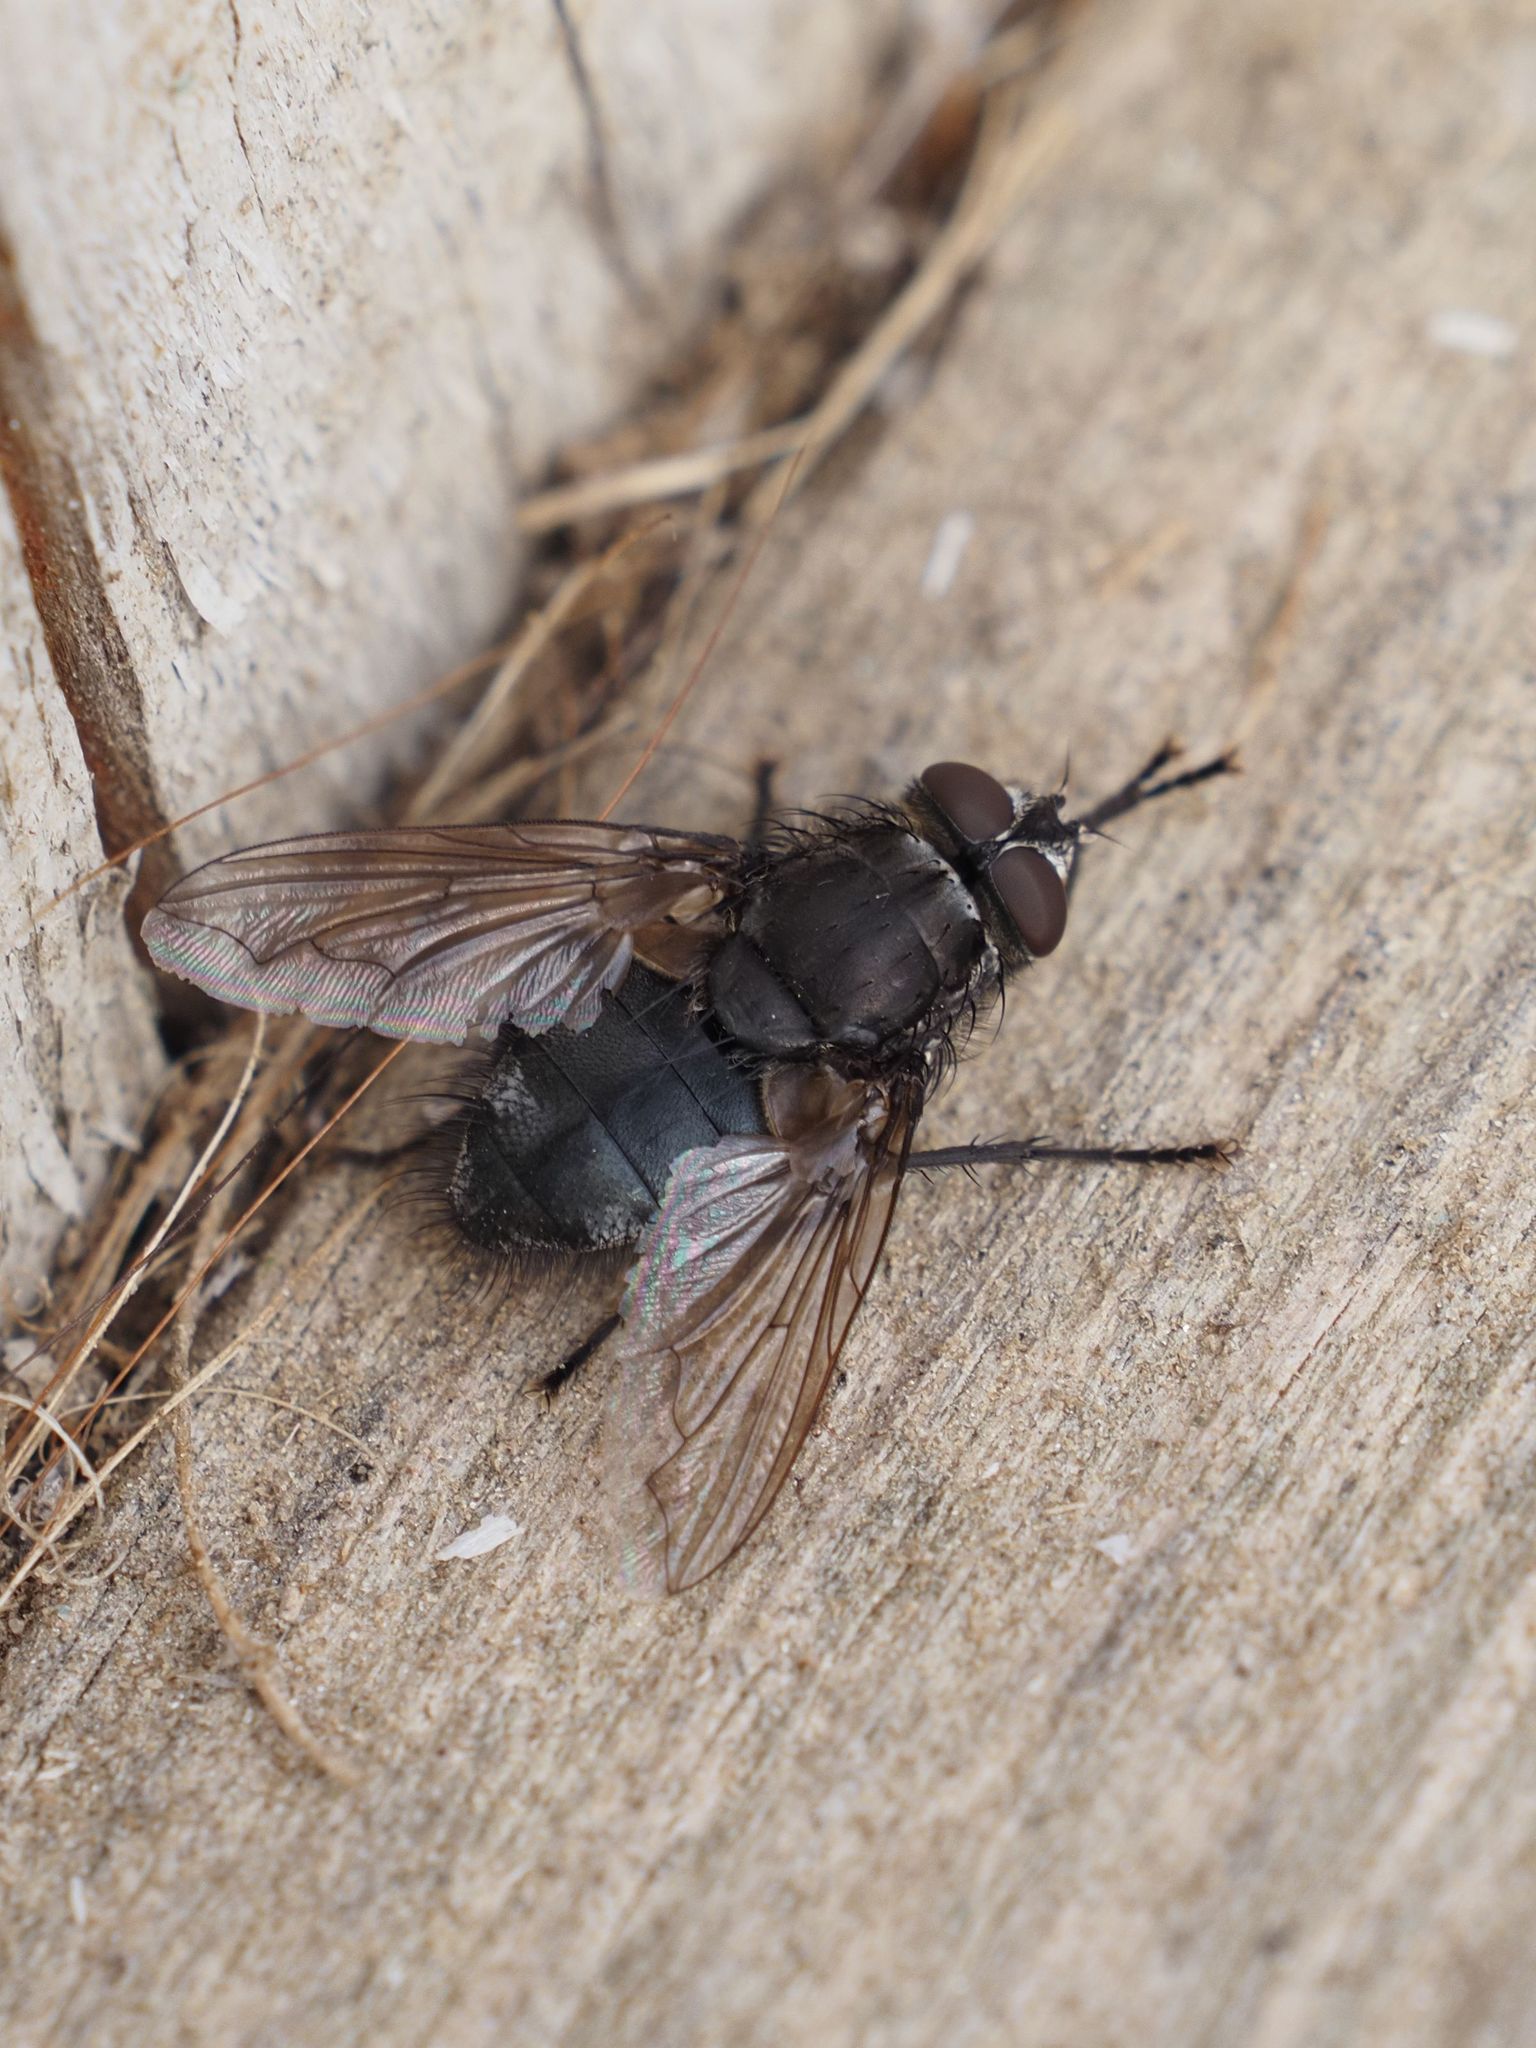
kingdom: Animalia
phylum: Arthropoda
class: Insecta
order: Diptera
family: Polleniidae
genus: Pollenia
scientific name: Pollenia vagabunda
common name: Vagabund cluster fly
